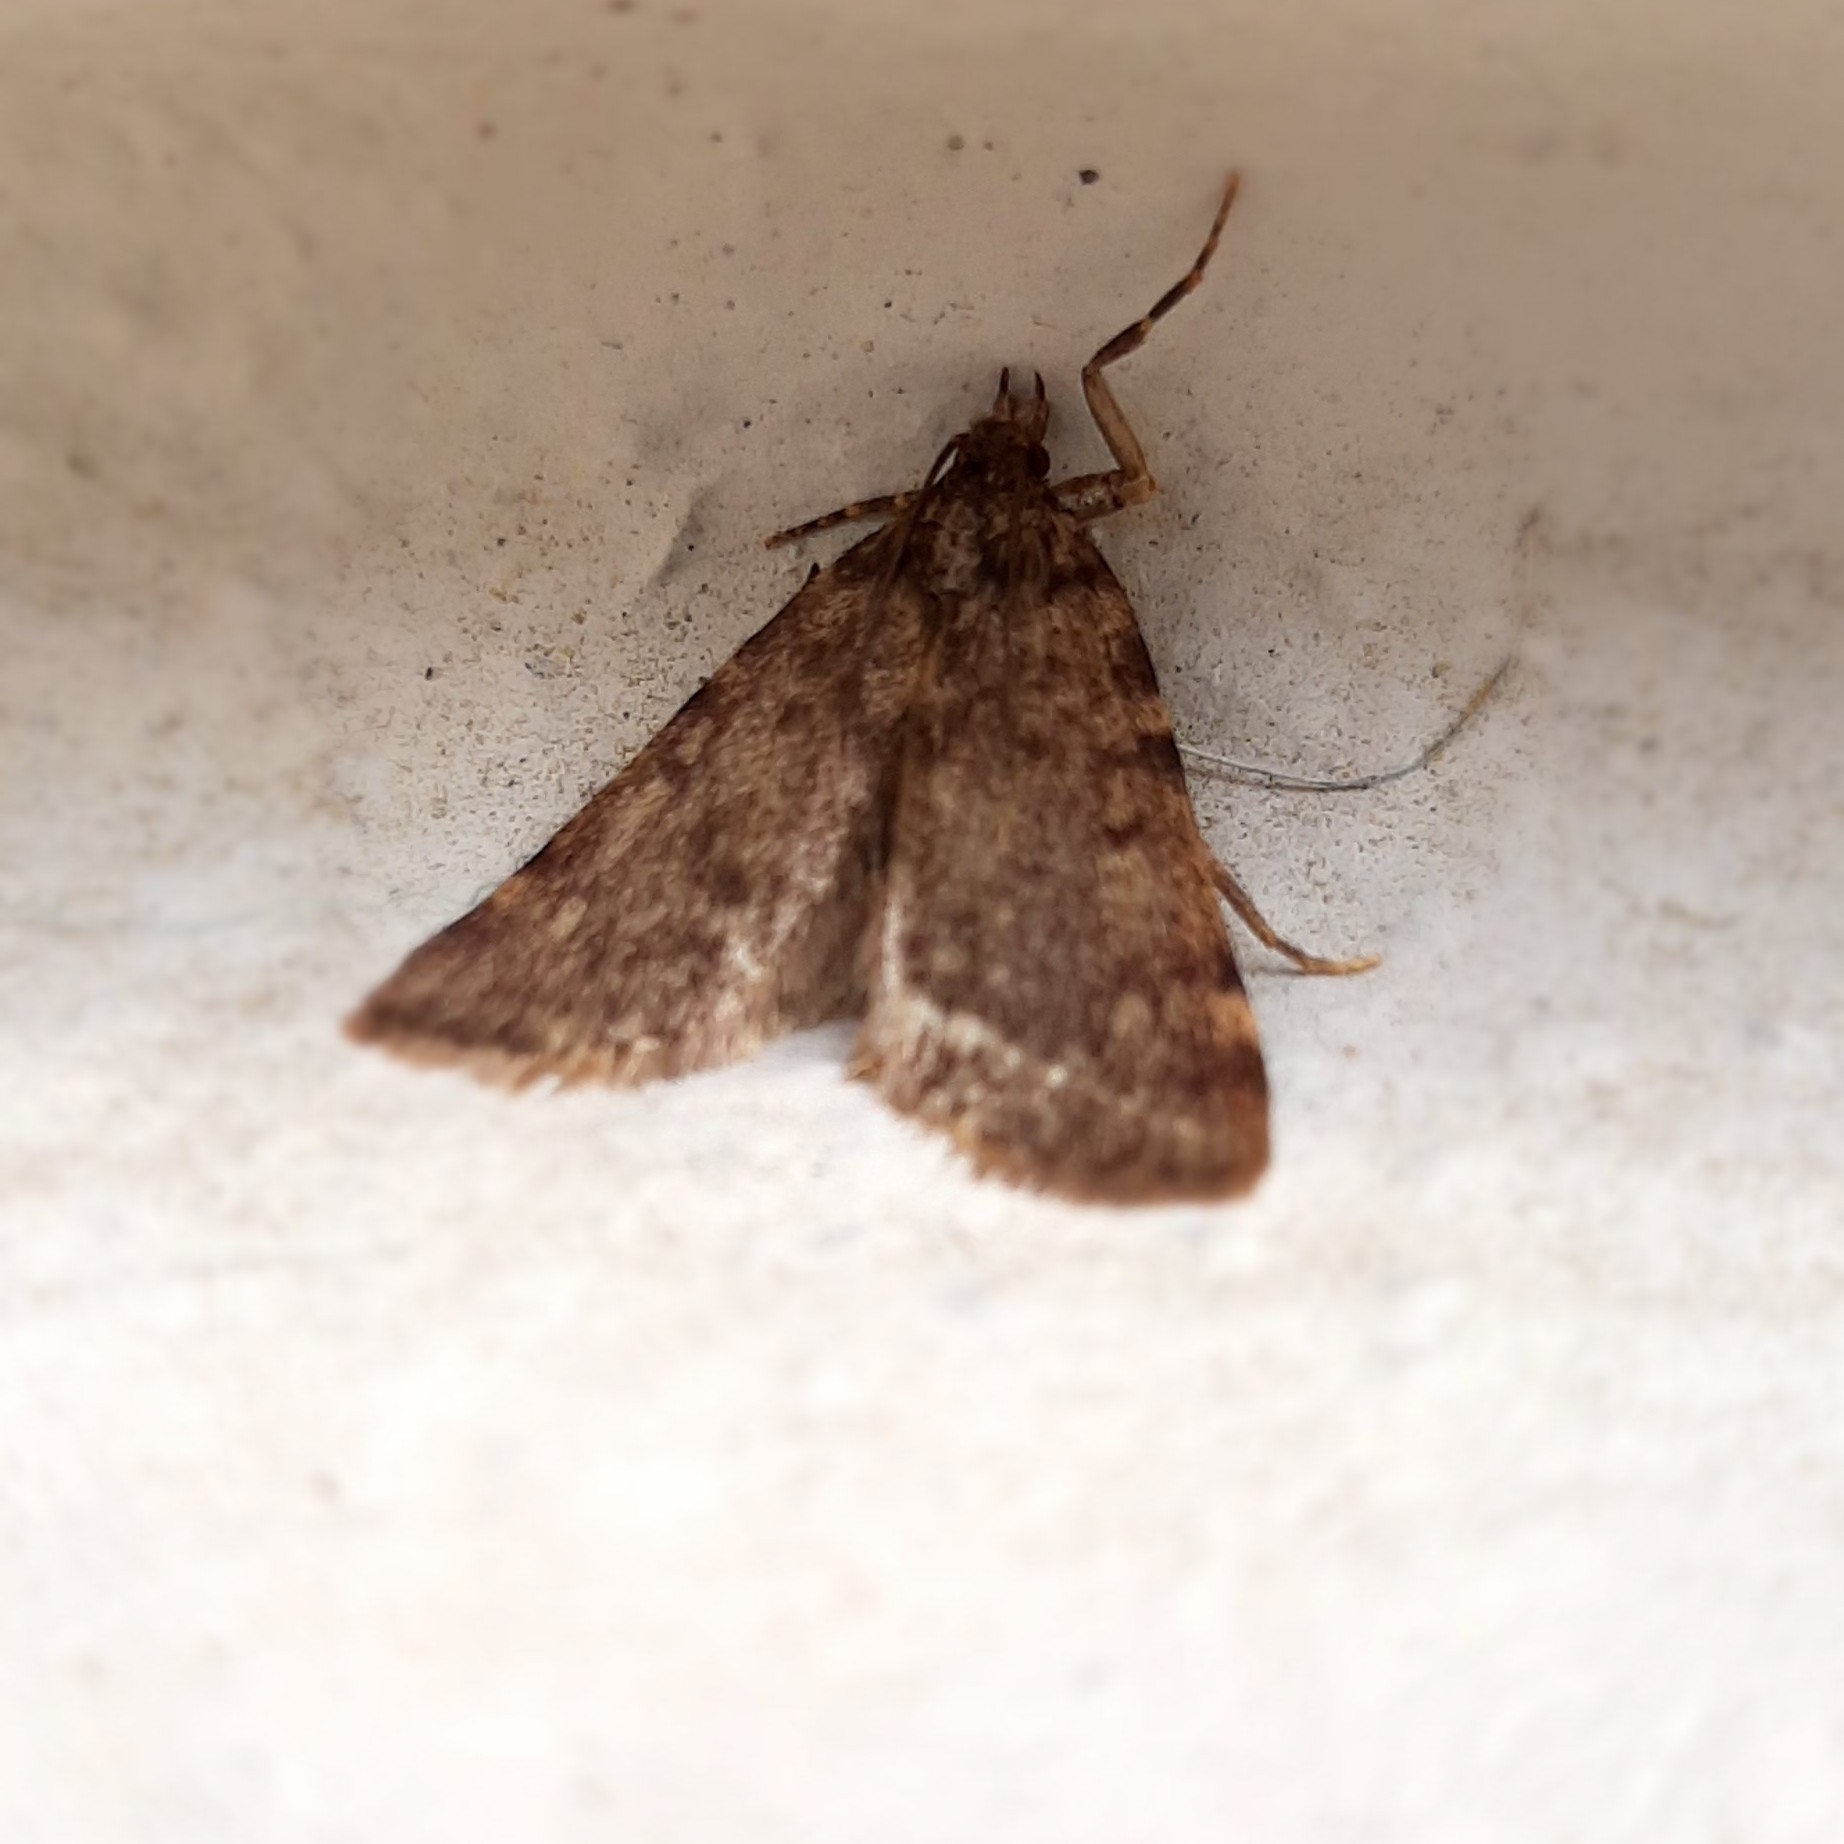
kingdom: Animalia
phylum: Arthropoda
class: Insecta
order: Lepidoptera
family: Pyralidae
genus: Aglossa
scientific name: Aglossa pinguinalis
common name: Large tabby
